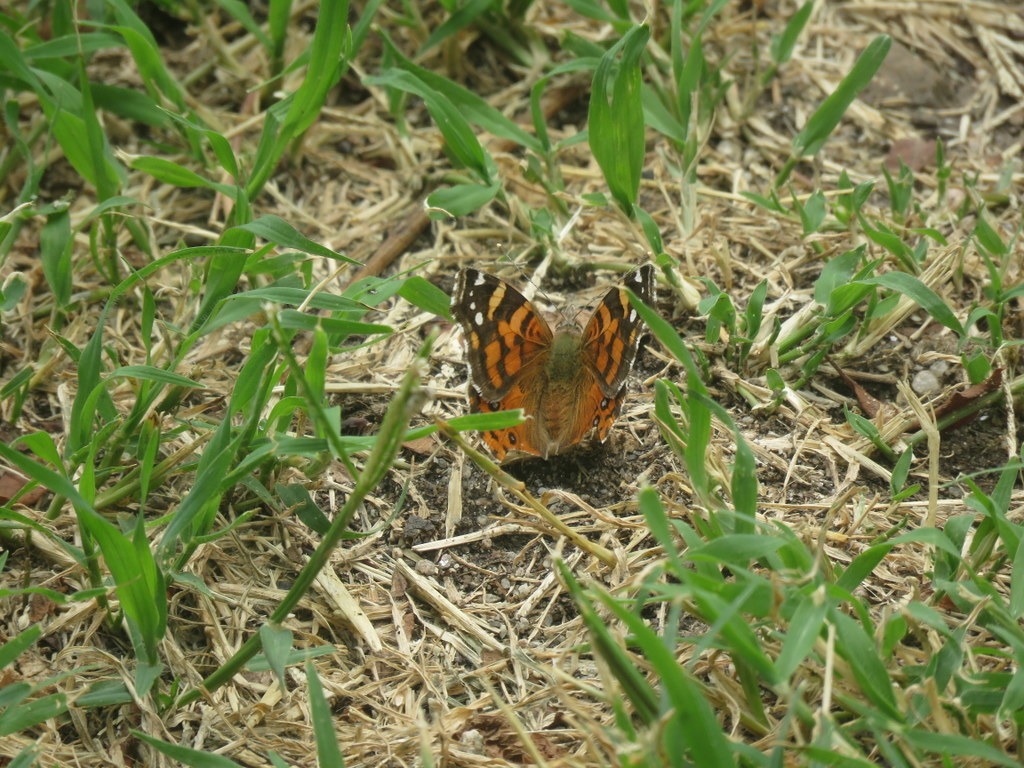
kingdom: Animalia
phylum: Arthropoda
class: Insecta
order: Lepidoptera
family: Nymphalidae
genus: Vanessa
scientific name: Vanessa carye
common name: Subtropical lady
